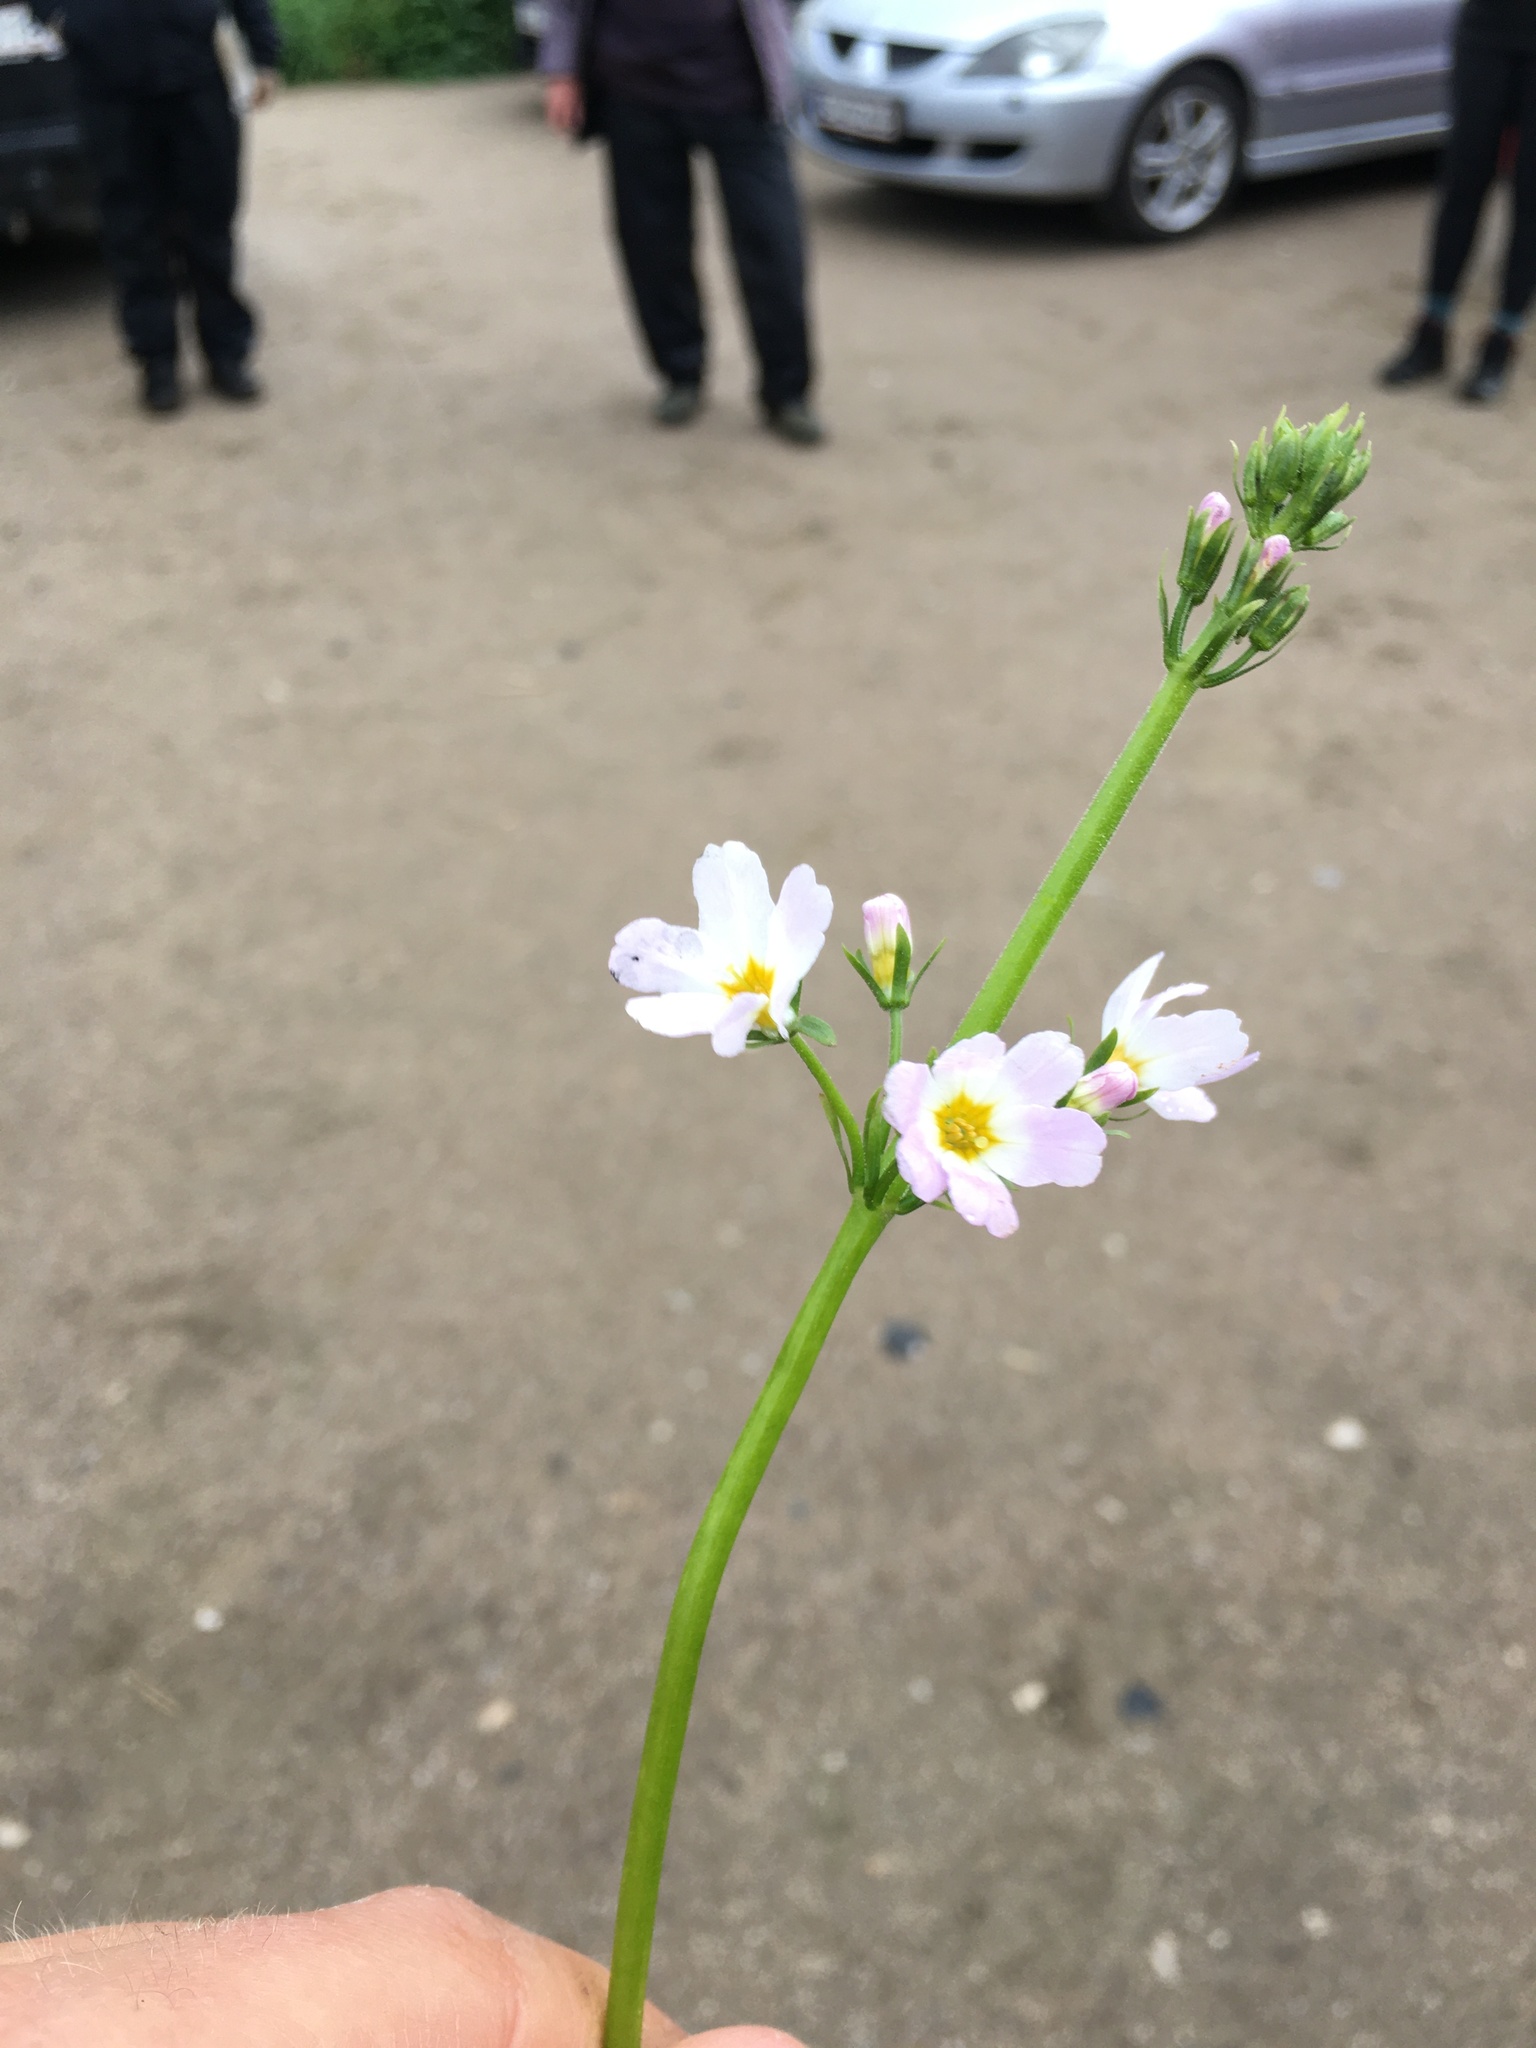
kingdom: Plantae
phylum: Tracheophyta
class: Magnoliopsida
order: Ericales
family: Primulaceae
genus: Hottonia
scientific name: Hottonia palustris
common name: Water-violet
